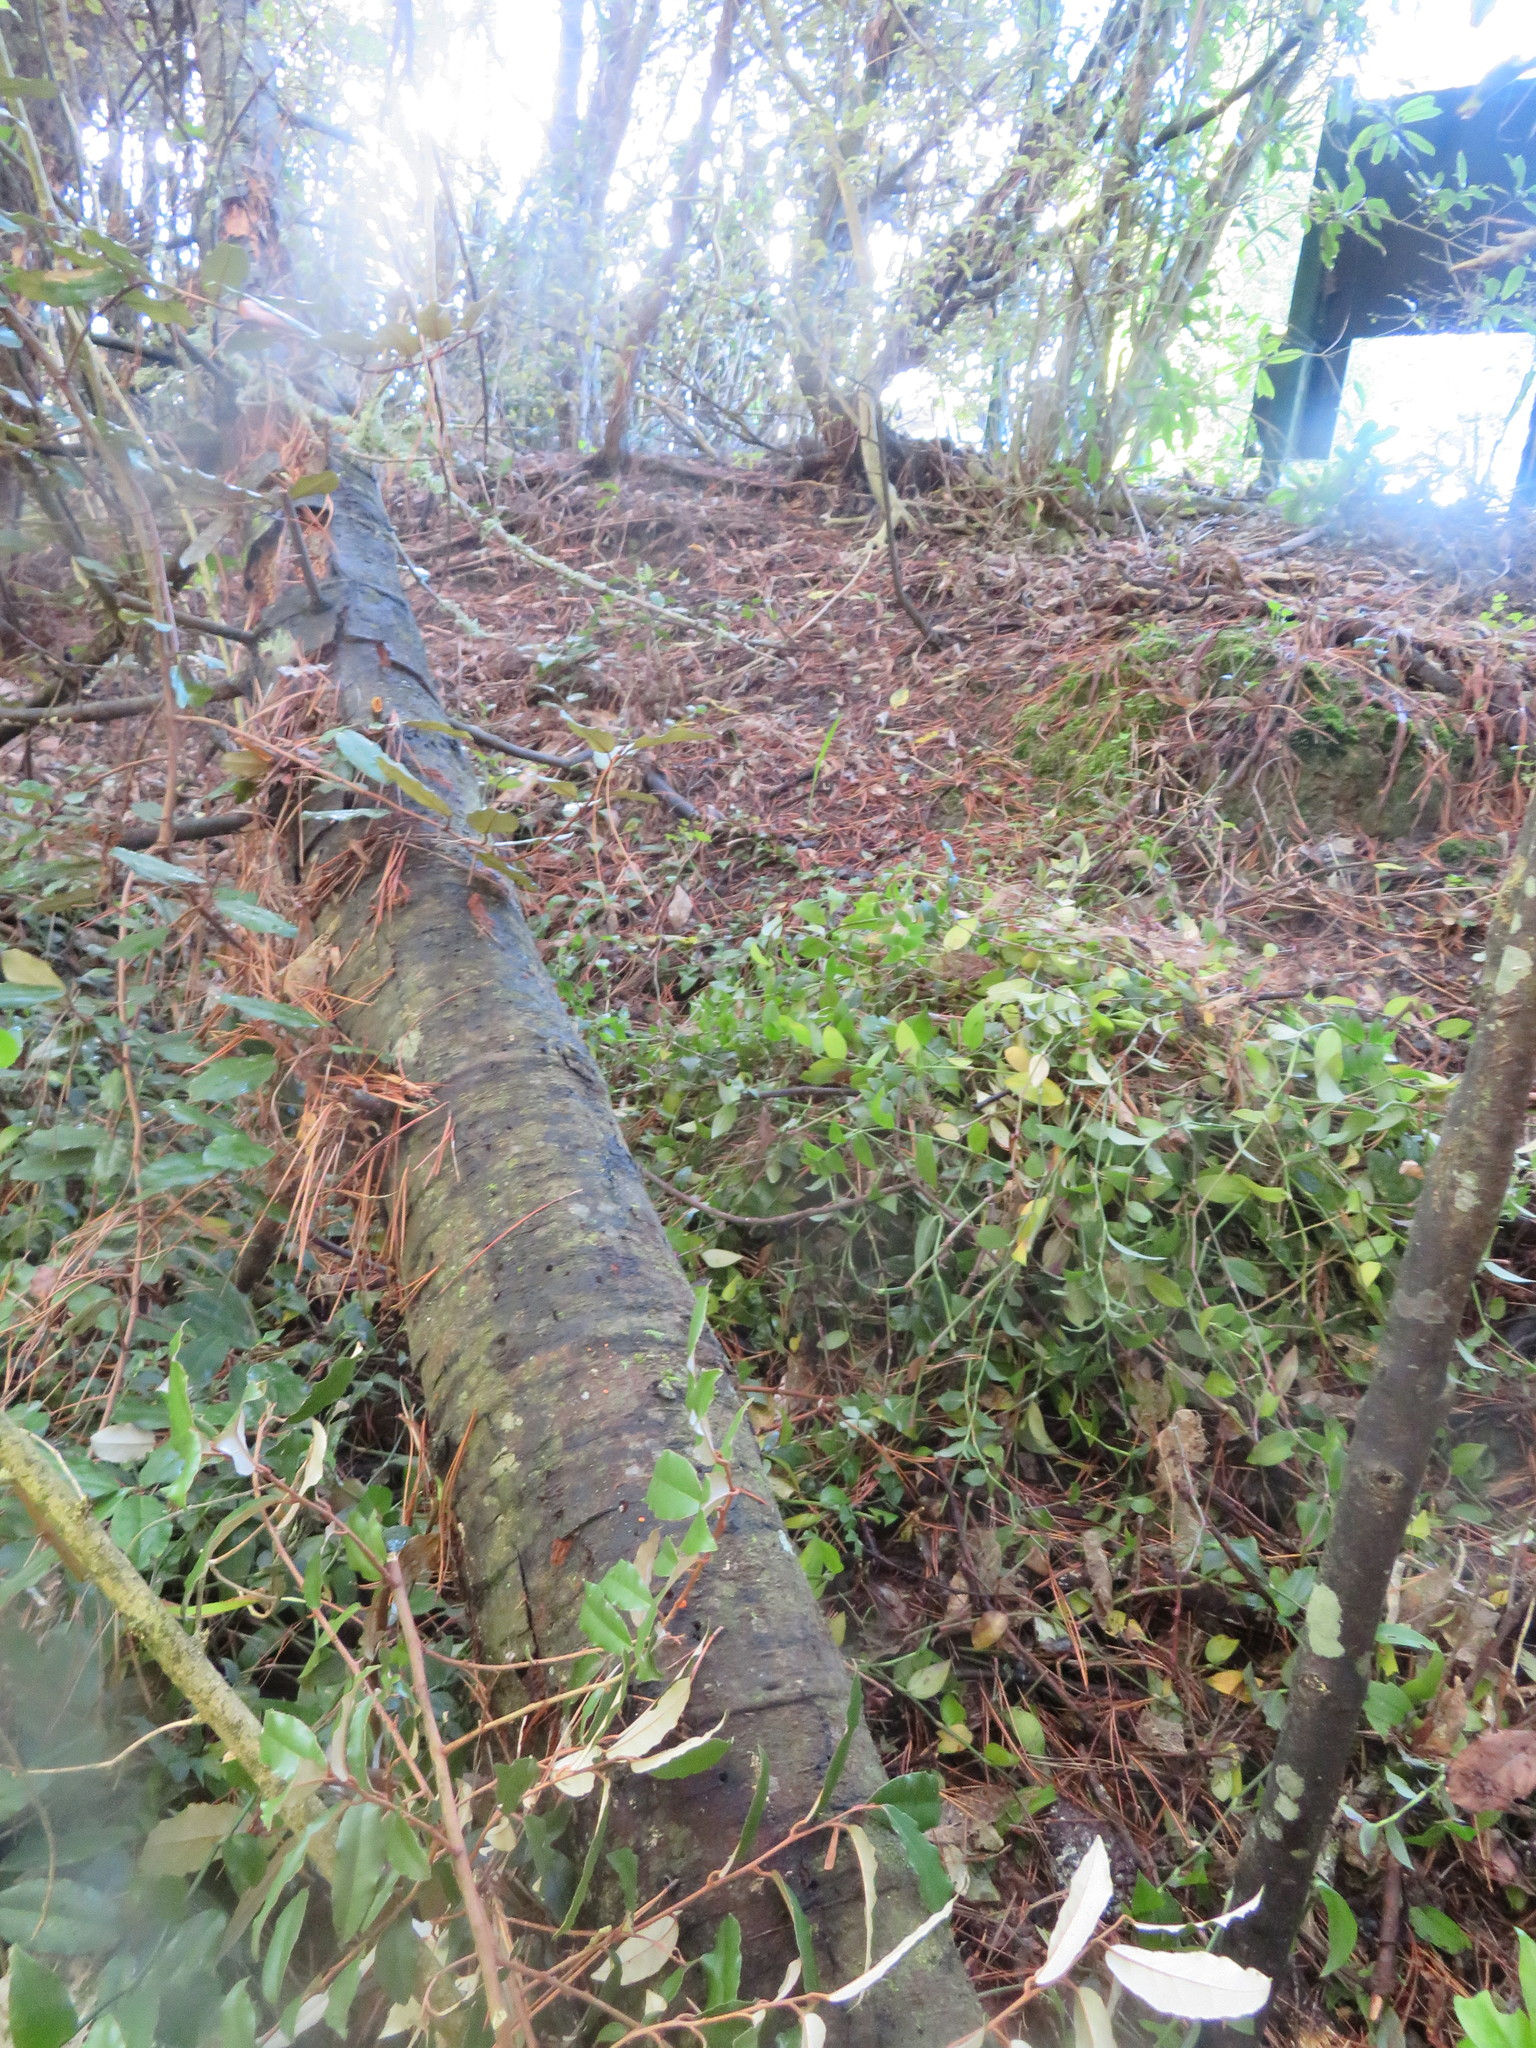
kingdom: Plantae
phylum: Tracheophyta
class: Magnoliopsida
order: Rosales
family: Elaeagnaceae
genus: Elaeagnus
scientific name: Elaeagnus reflexa
